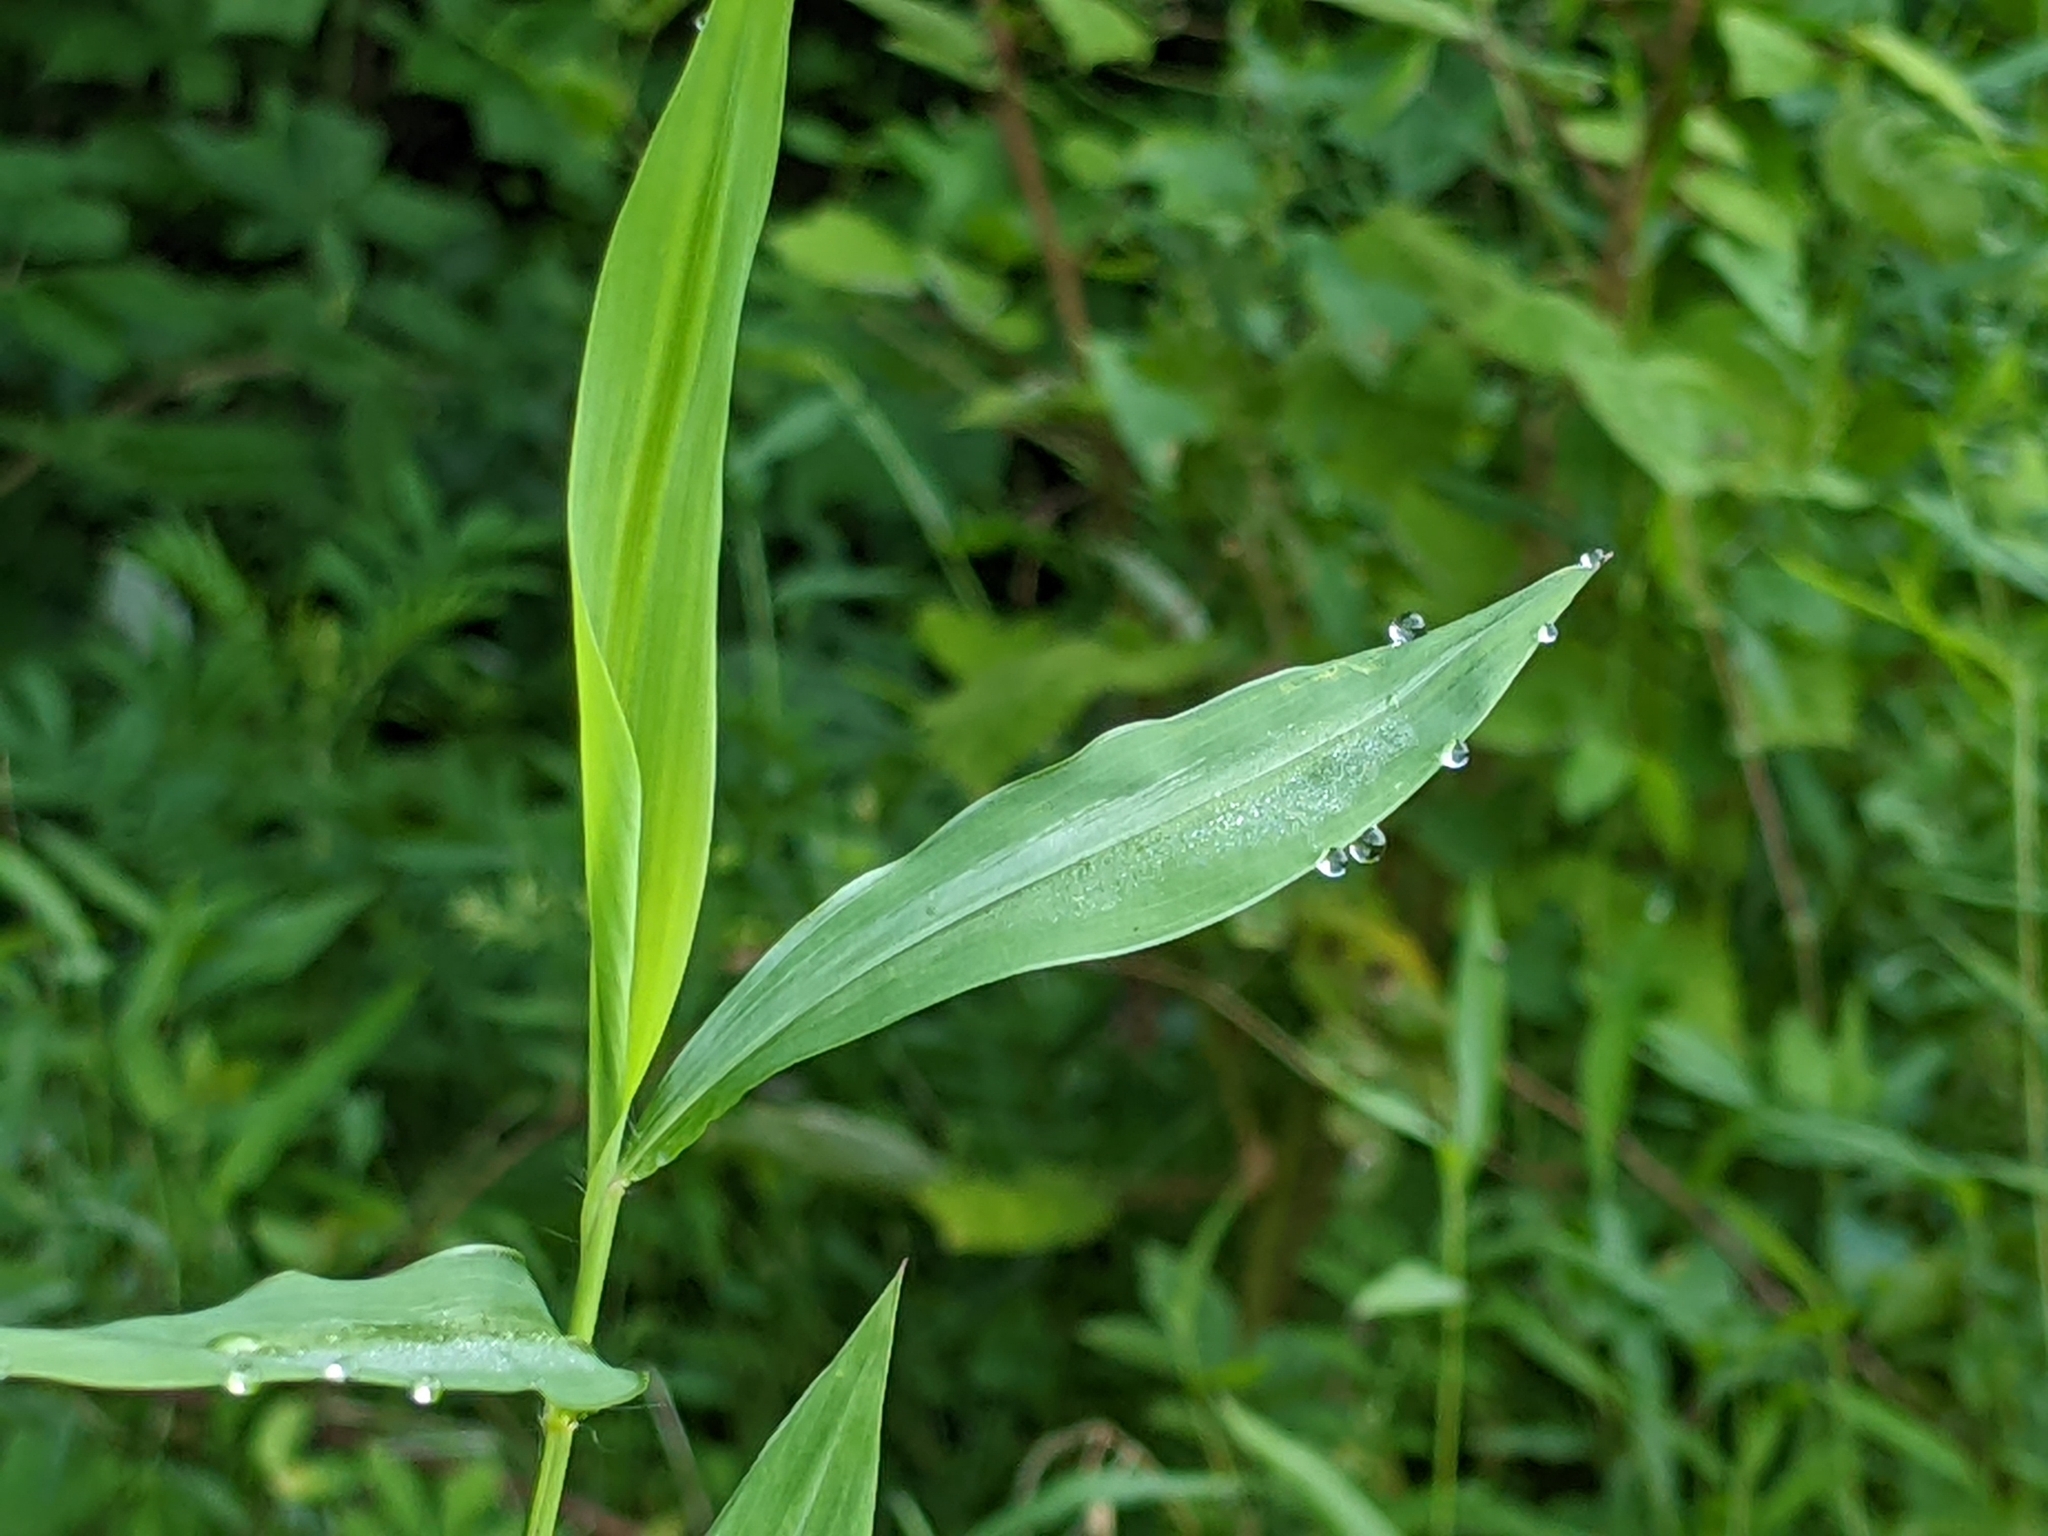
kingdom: Plantae
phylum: Tracheophyta
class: Liliopsida
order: Poales
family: Poaceae
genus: Microstegium
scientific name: Microstegium vimineum
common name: Japanese stiltgrass
